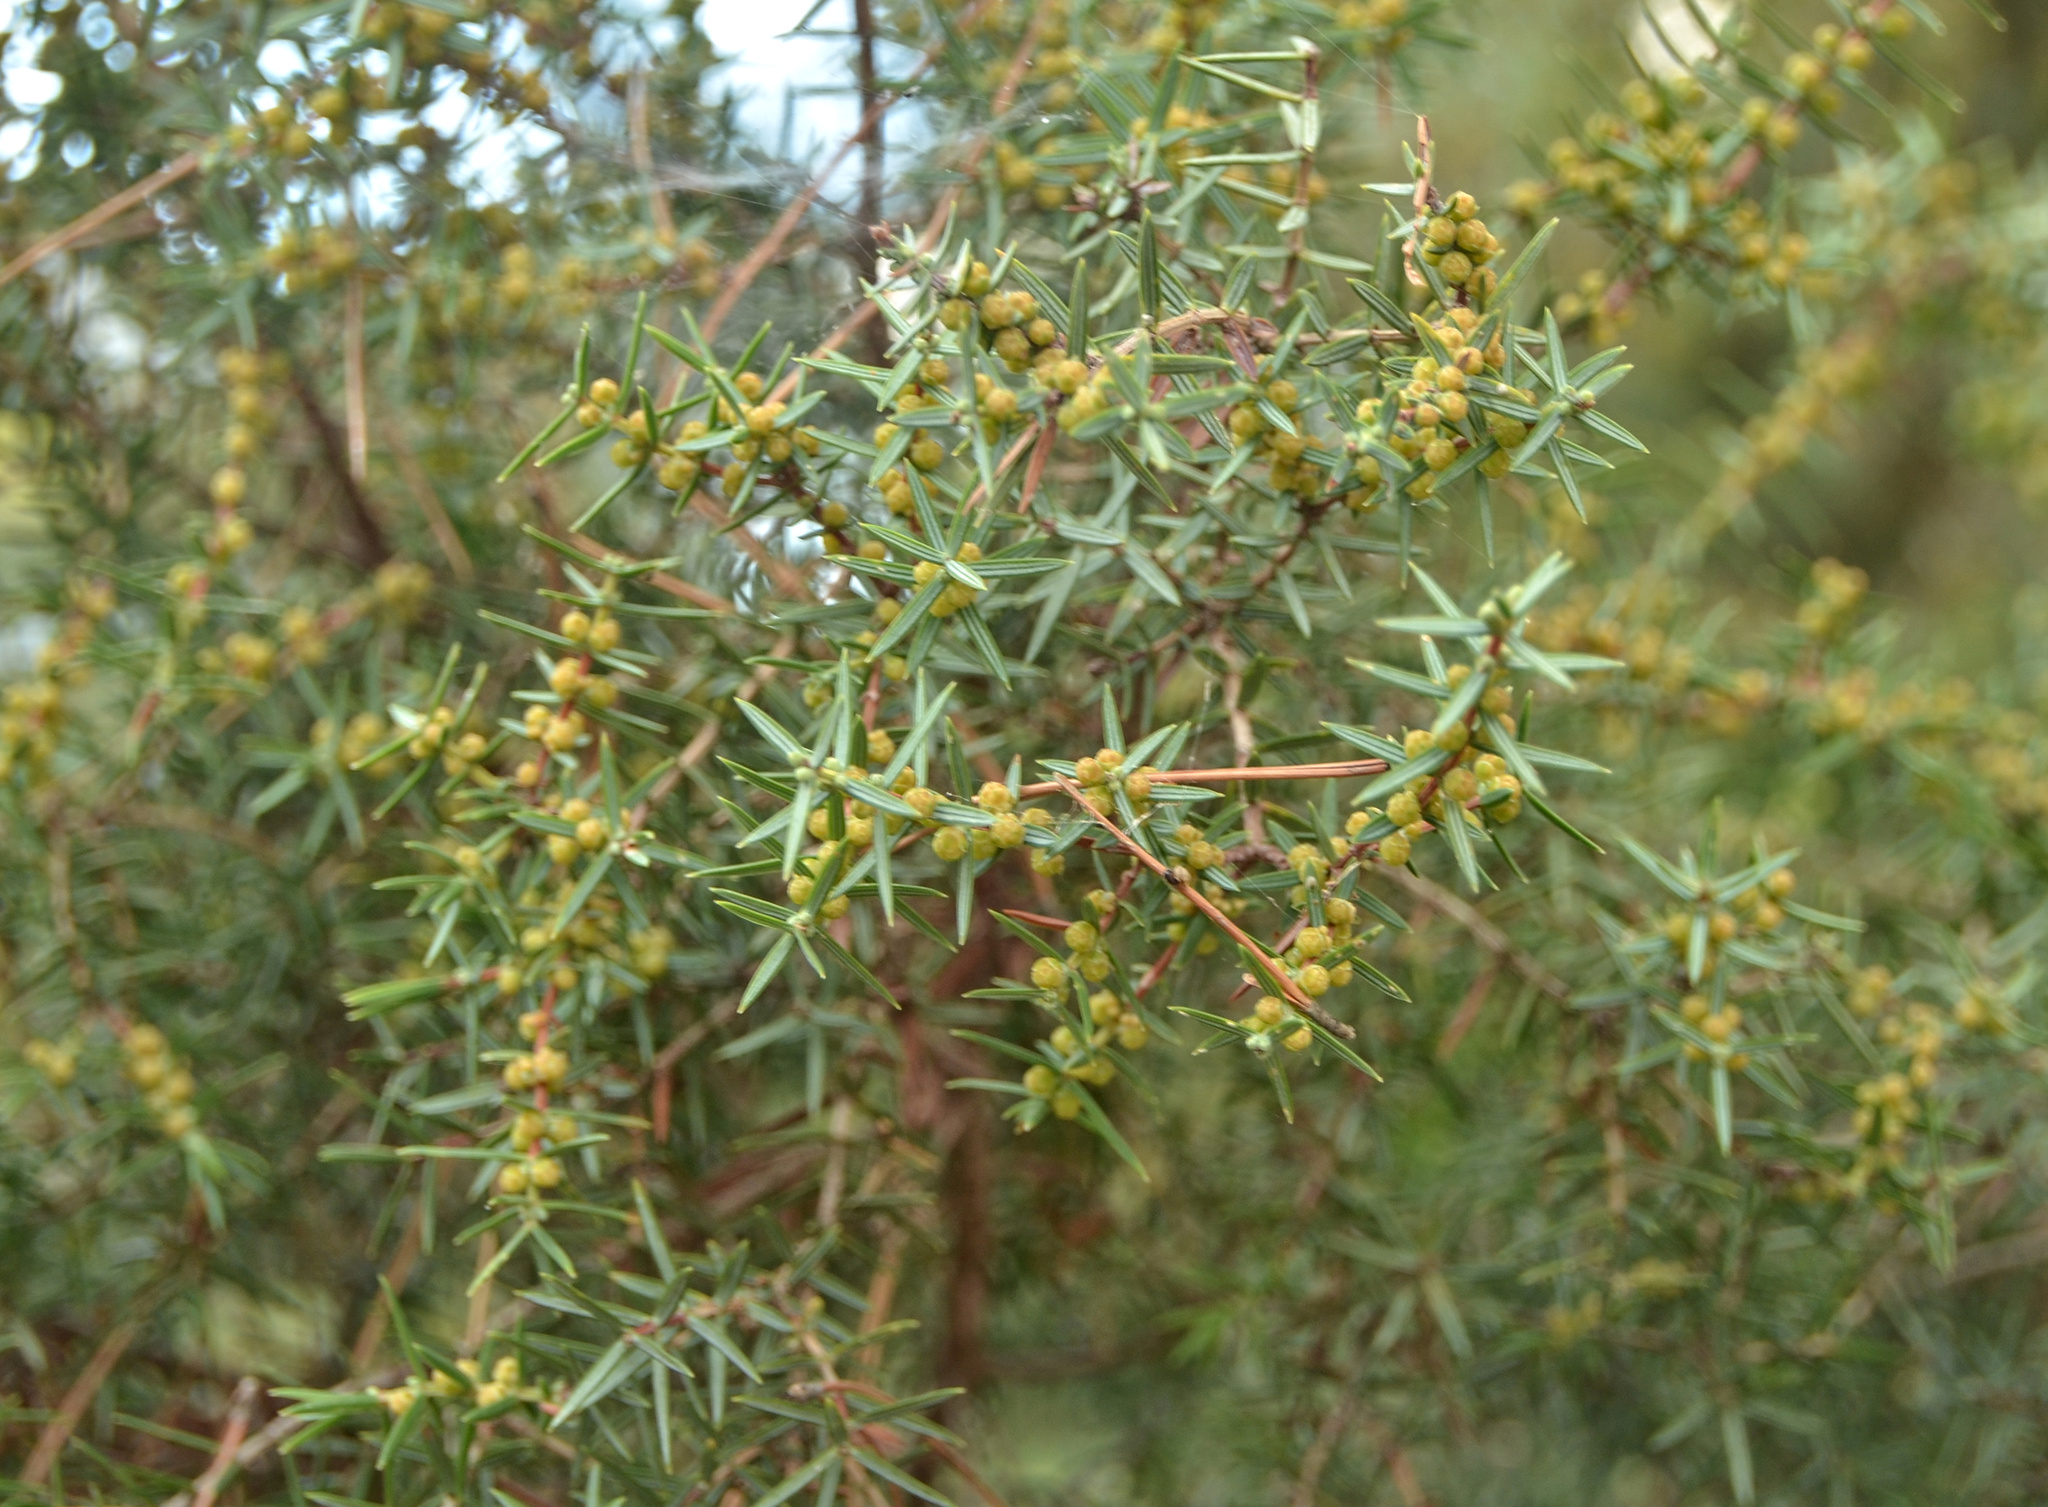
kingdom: Plantae
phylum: Tracheophyta
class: Pinopsida
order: Pinales
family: Cupressaceae
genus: Juniperus
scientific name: Juniperus oxycedrus
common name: Prickly juniper
